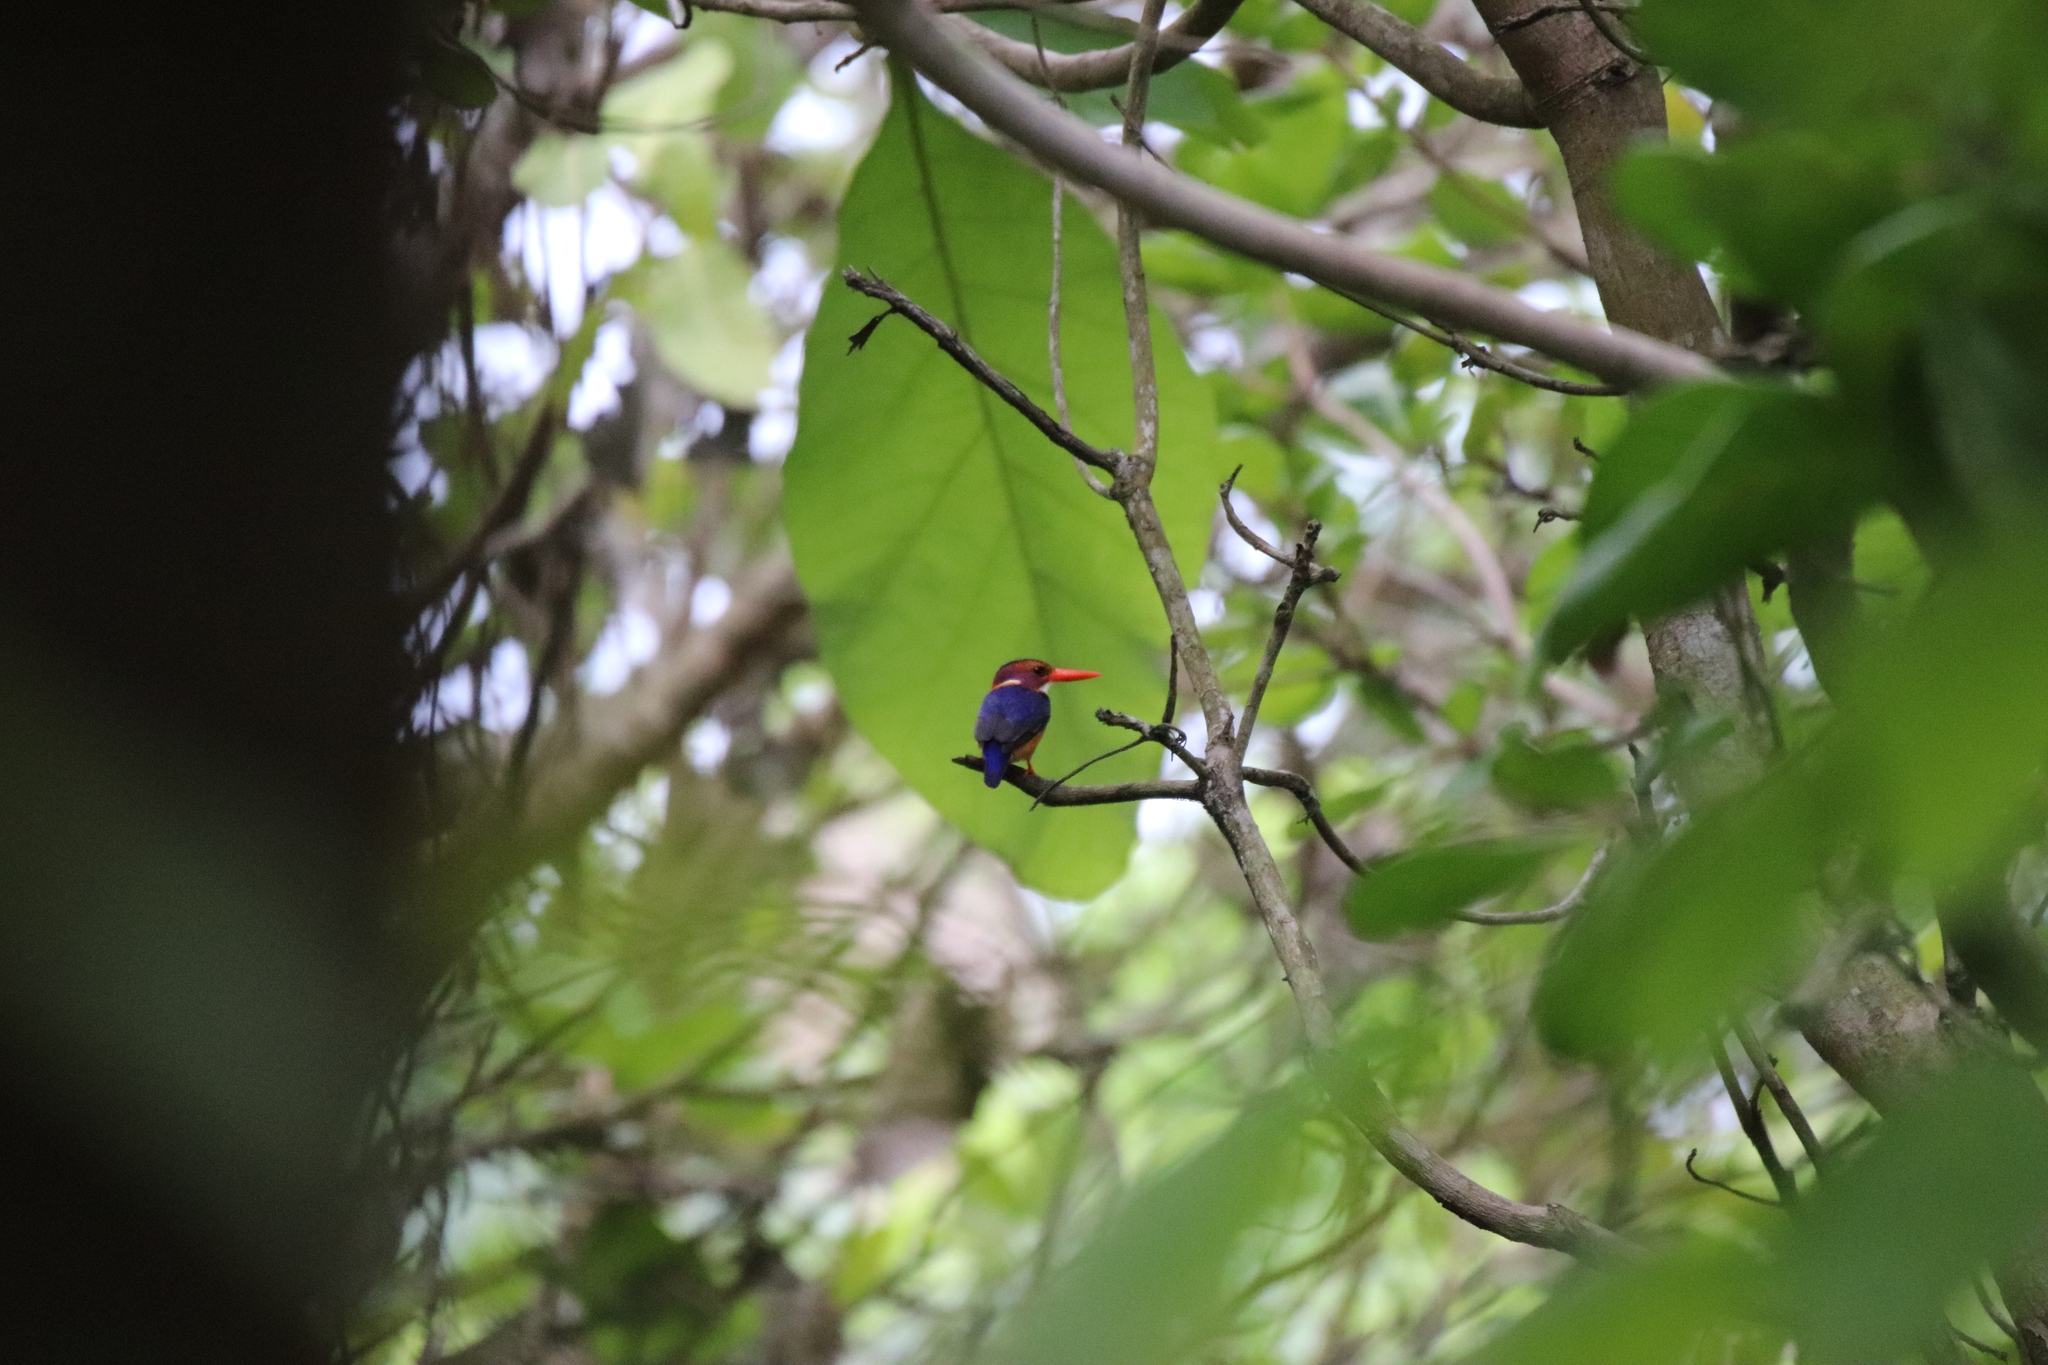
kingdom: Animalia
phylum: Chordata
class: Aves
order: Coraciiformes
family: Alcedinidae
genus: Ispidina
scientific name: Ispidina picta
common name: African pygmy-kingfisher
